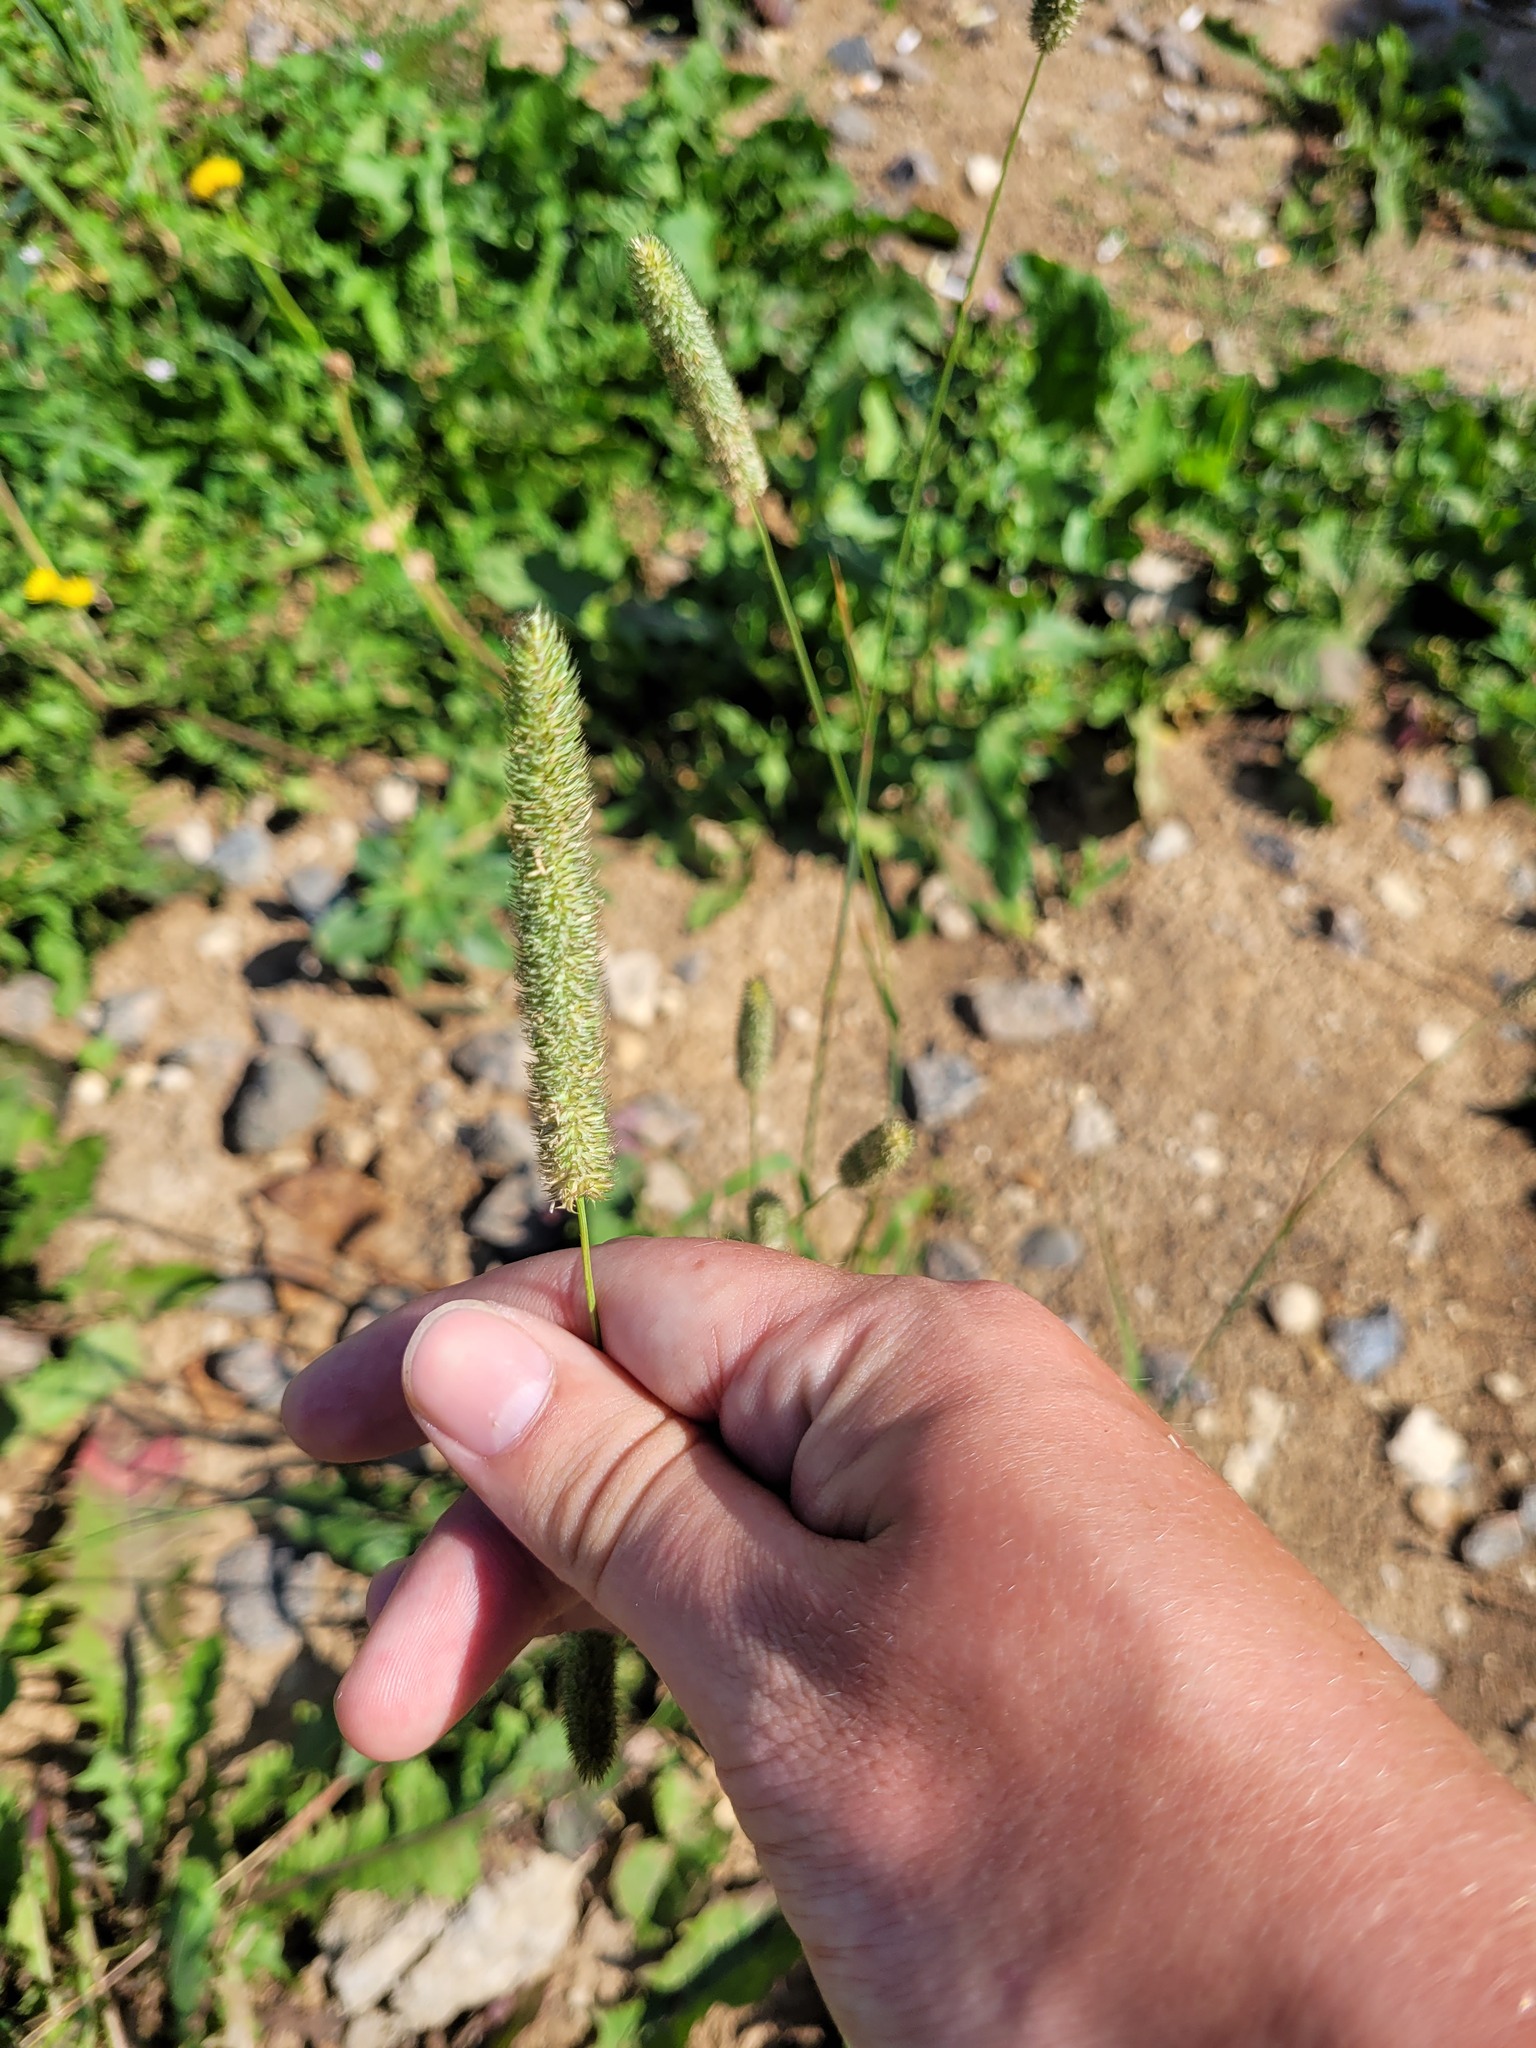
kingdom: Plantae
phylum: Tracheophyta
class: Liliopsida
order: Poales
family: Poaceae
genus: Phleum
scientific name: Phleum pratense
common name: Timothy grass
